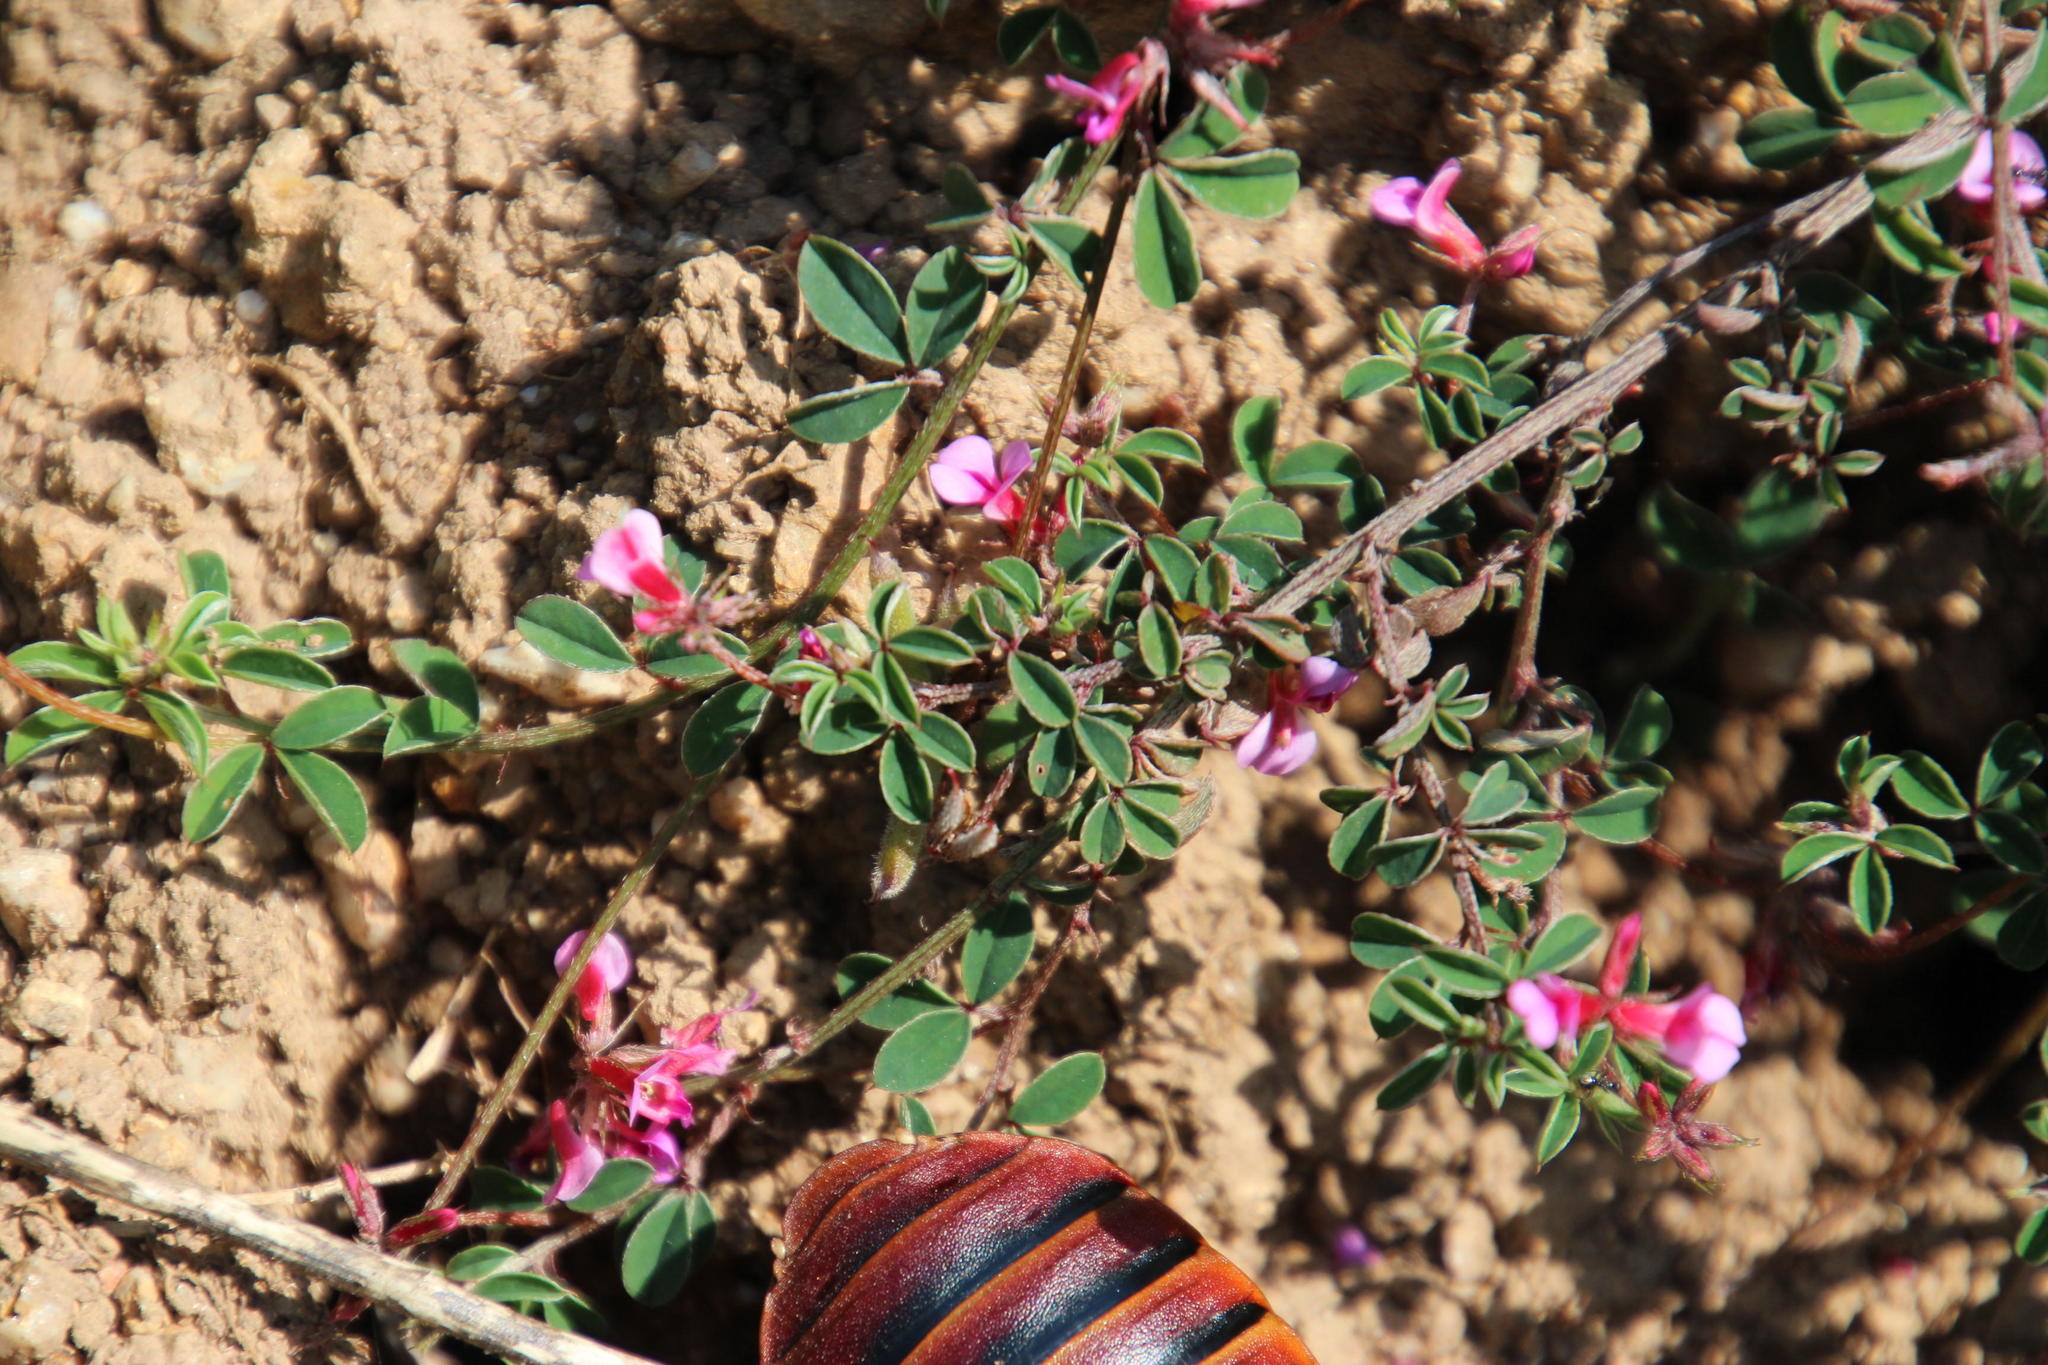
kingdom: Plantae
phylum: Tracheophyta
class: Magnoliopsida
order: Fabales
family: Fabaceae
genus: Indigofera
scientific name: Indigofera
